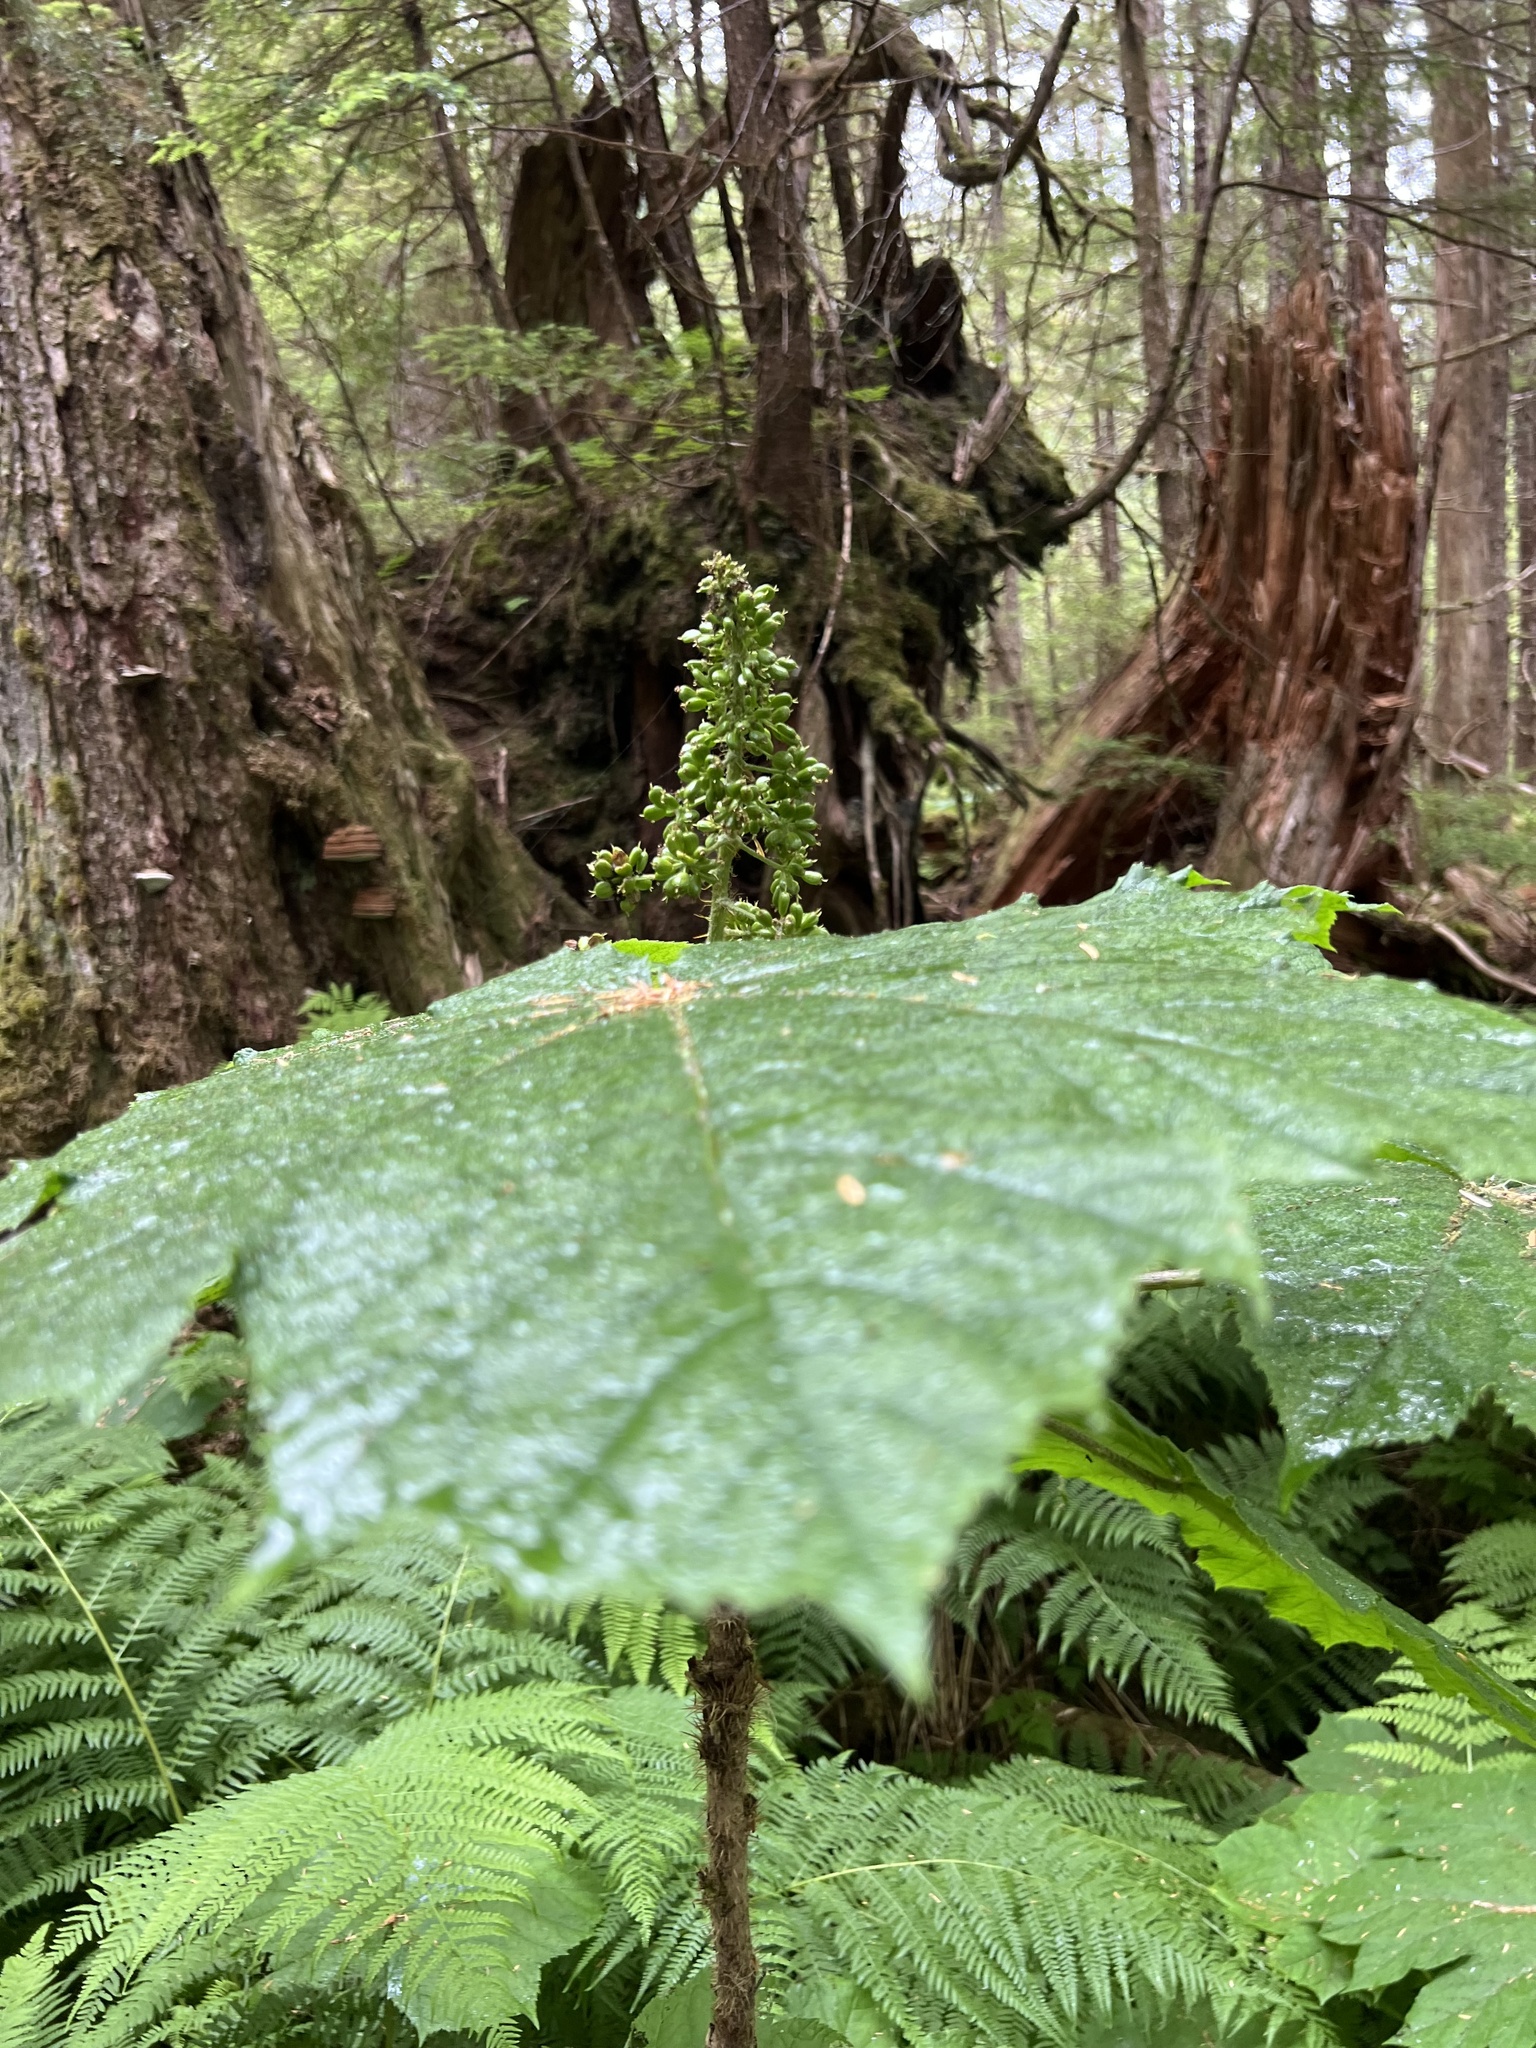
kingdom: Plantae
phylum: Tracheophyta
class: Magnoliopsida
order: Apiales
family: Araliaceae
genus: Oplopanax
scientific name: Oplopanax horridus
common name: Devil's walking-stick
